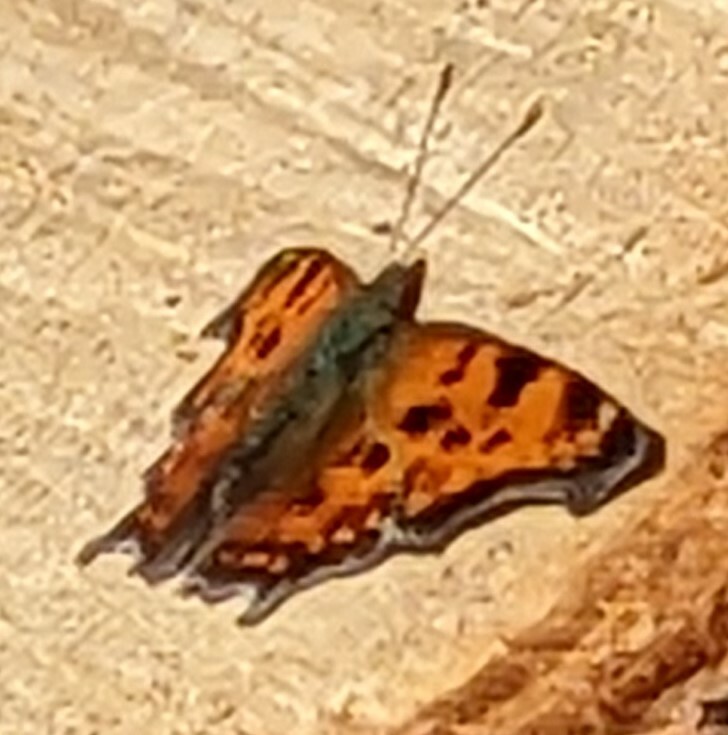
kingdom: Animalia
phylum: Arthropoda
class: Insecta
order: Lepidoptera
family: Nymphalidae
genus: Polygonia
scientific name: Polygonia comma
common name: Eastern comma
